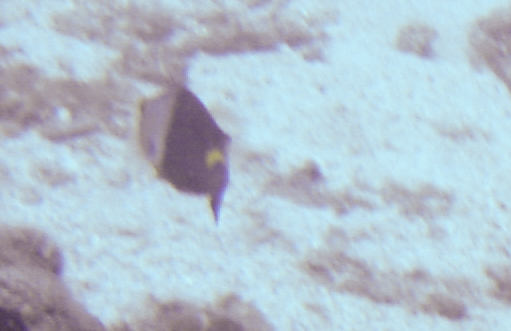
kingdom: Animalia
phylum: Chordata
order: Perciformes
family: Scaridae
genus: Sparisoma
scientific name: Sparisoma cretense
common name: Parrotfish
